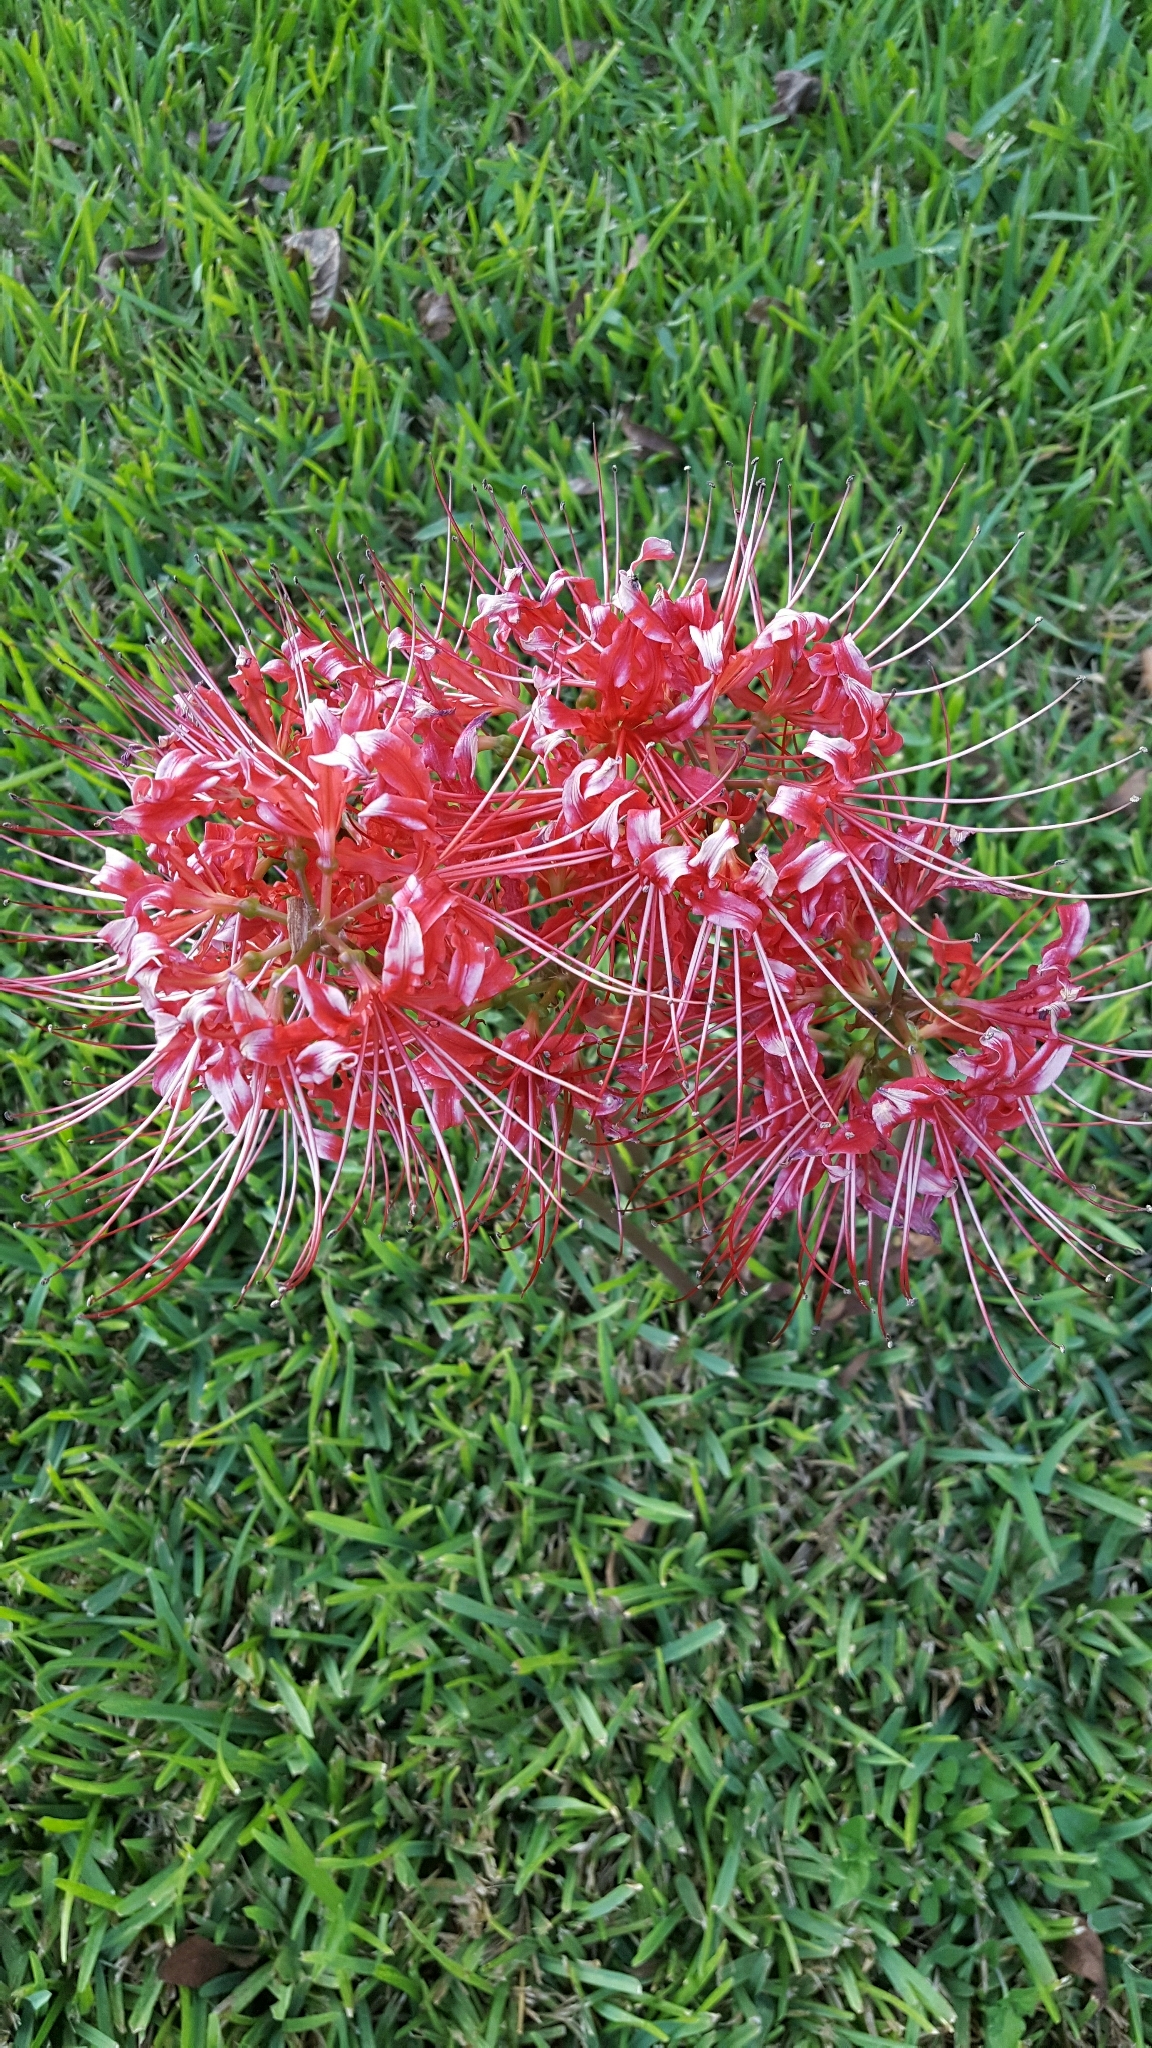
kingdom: Plantae
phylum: Tracheophyta
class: Liliopsida
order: Asparagales
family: Amaryllidaceae
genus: Lycoris
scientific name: Lycoris radiata
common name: Red spider lily
